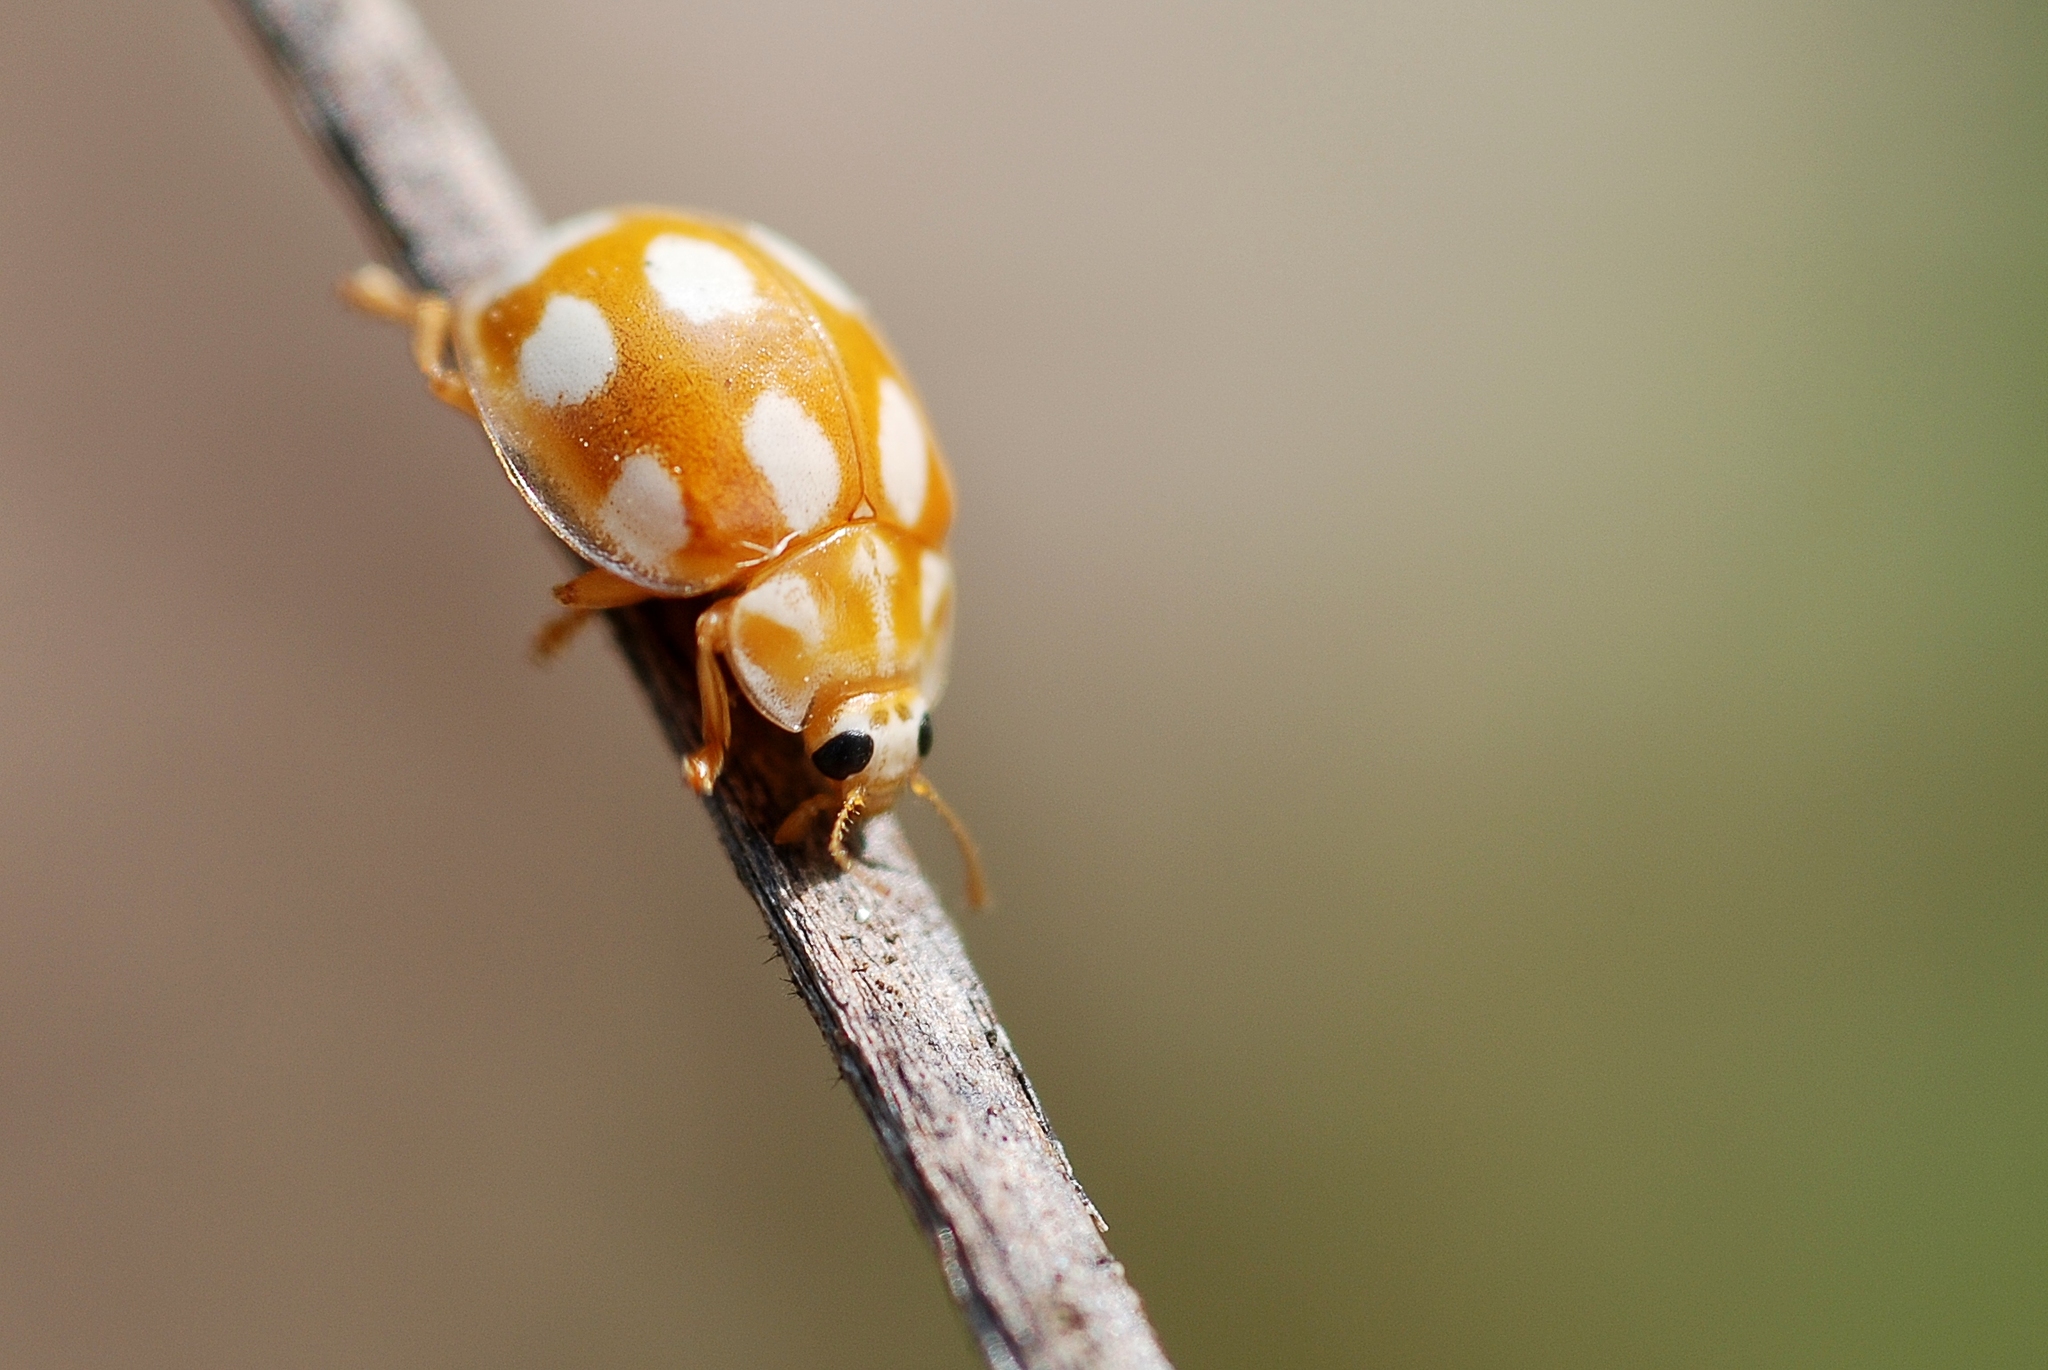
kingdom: Animalia
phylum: Arthropoda
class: Insecta
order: Coleoptera
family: Coccinellidae
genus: Calvia
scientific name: Calvia decemguttata
